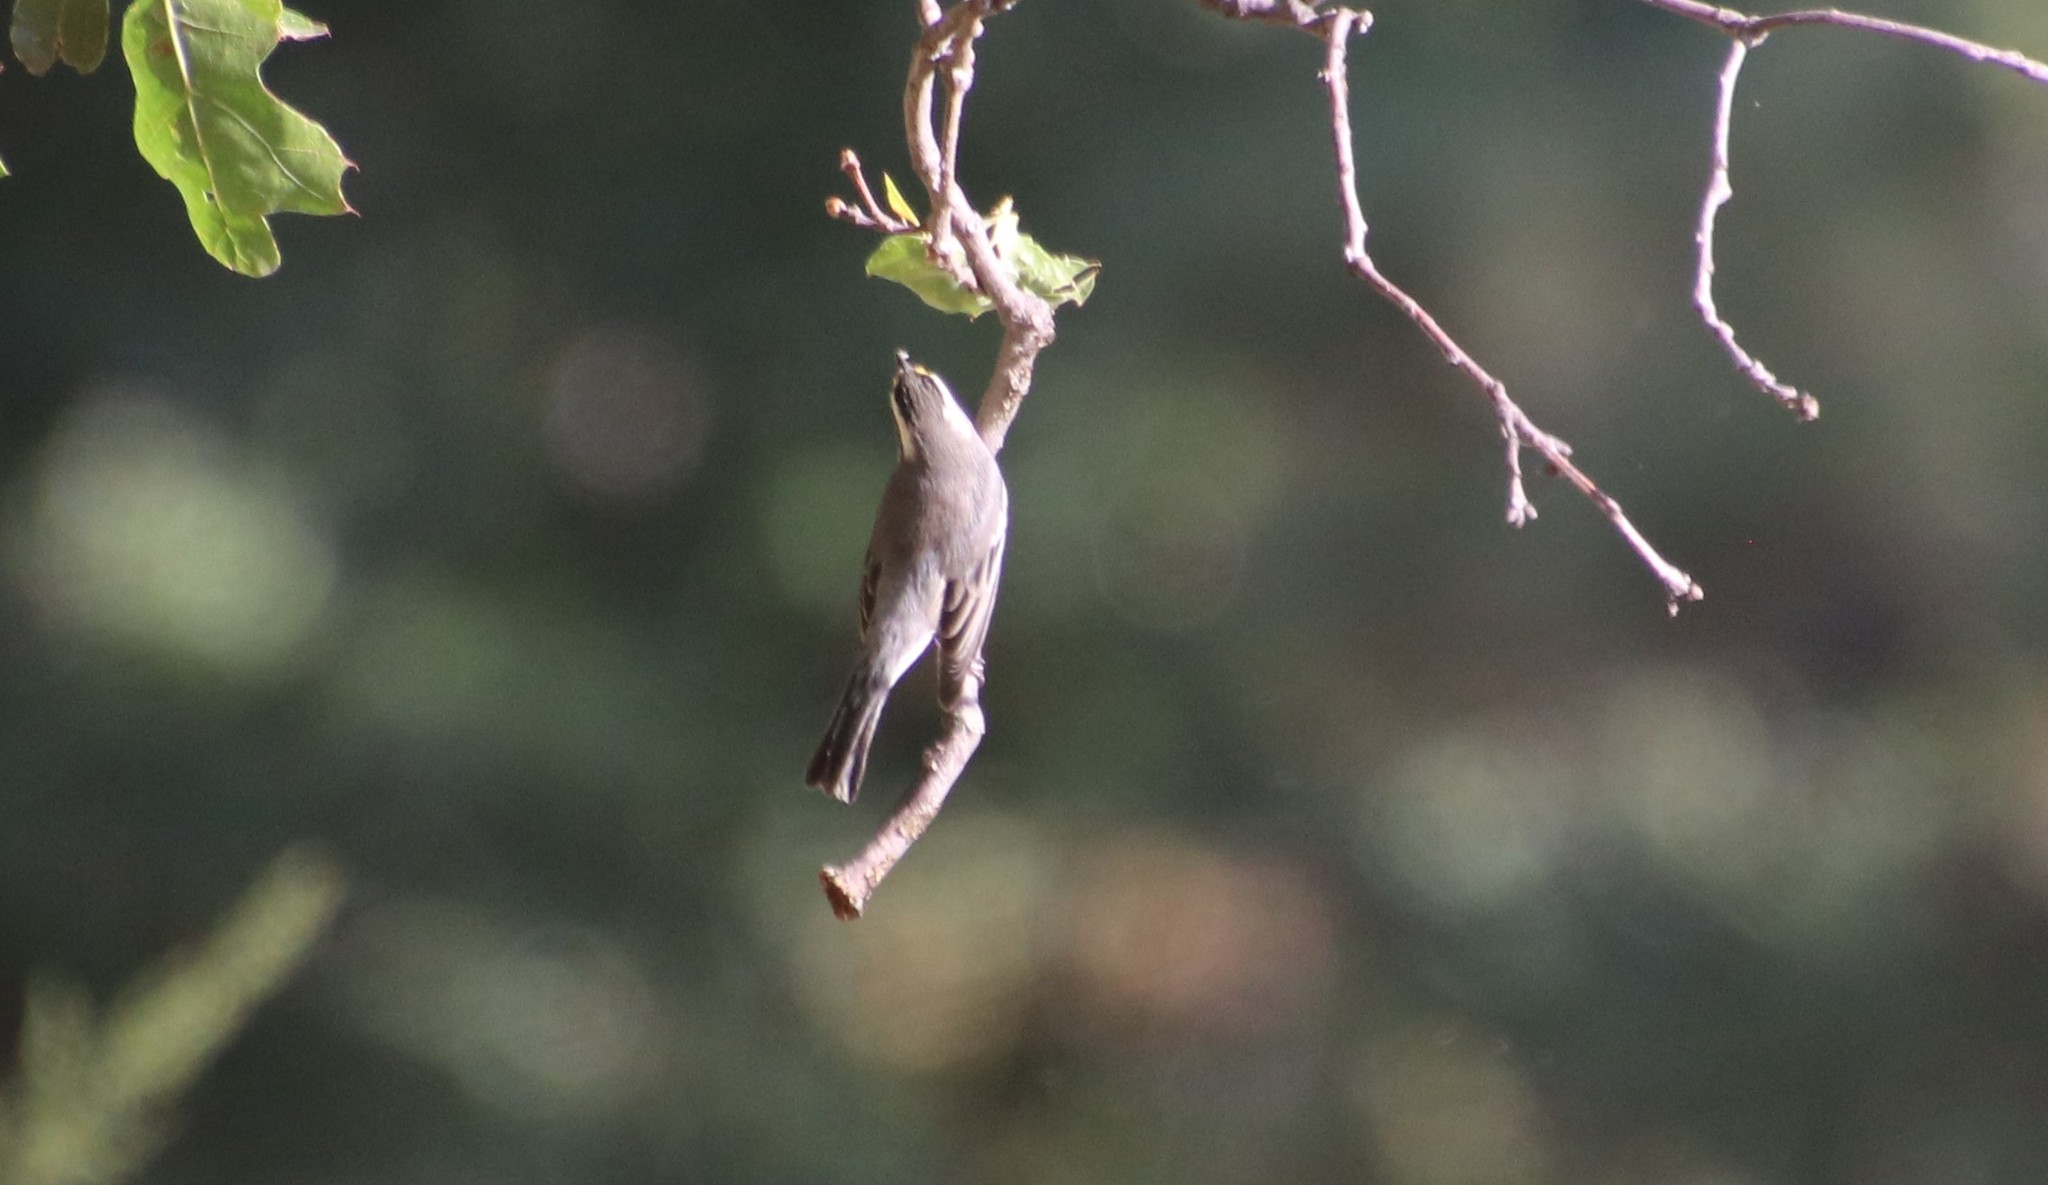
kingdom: Animalia
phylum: Chordata
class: Aves
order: Passeriformes
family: Parulidae
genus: Setophaga
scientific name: Setophaga nigrescens
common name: Black-throated gray warbler
